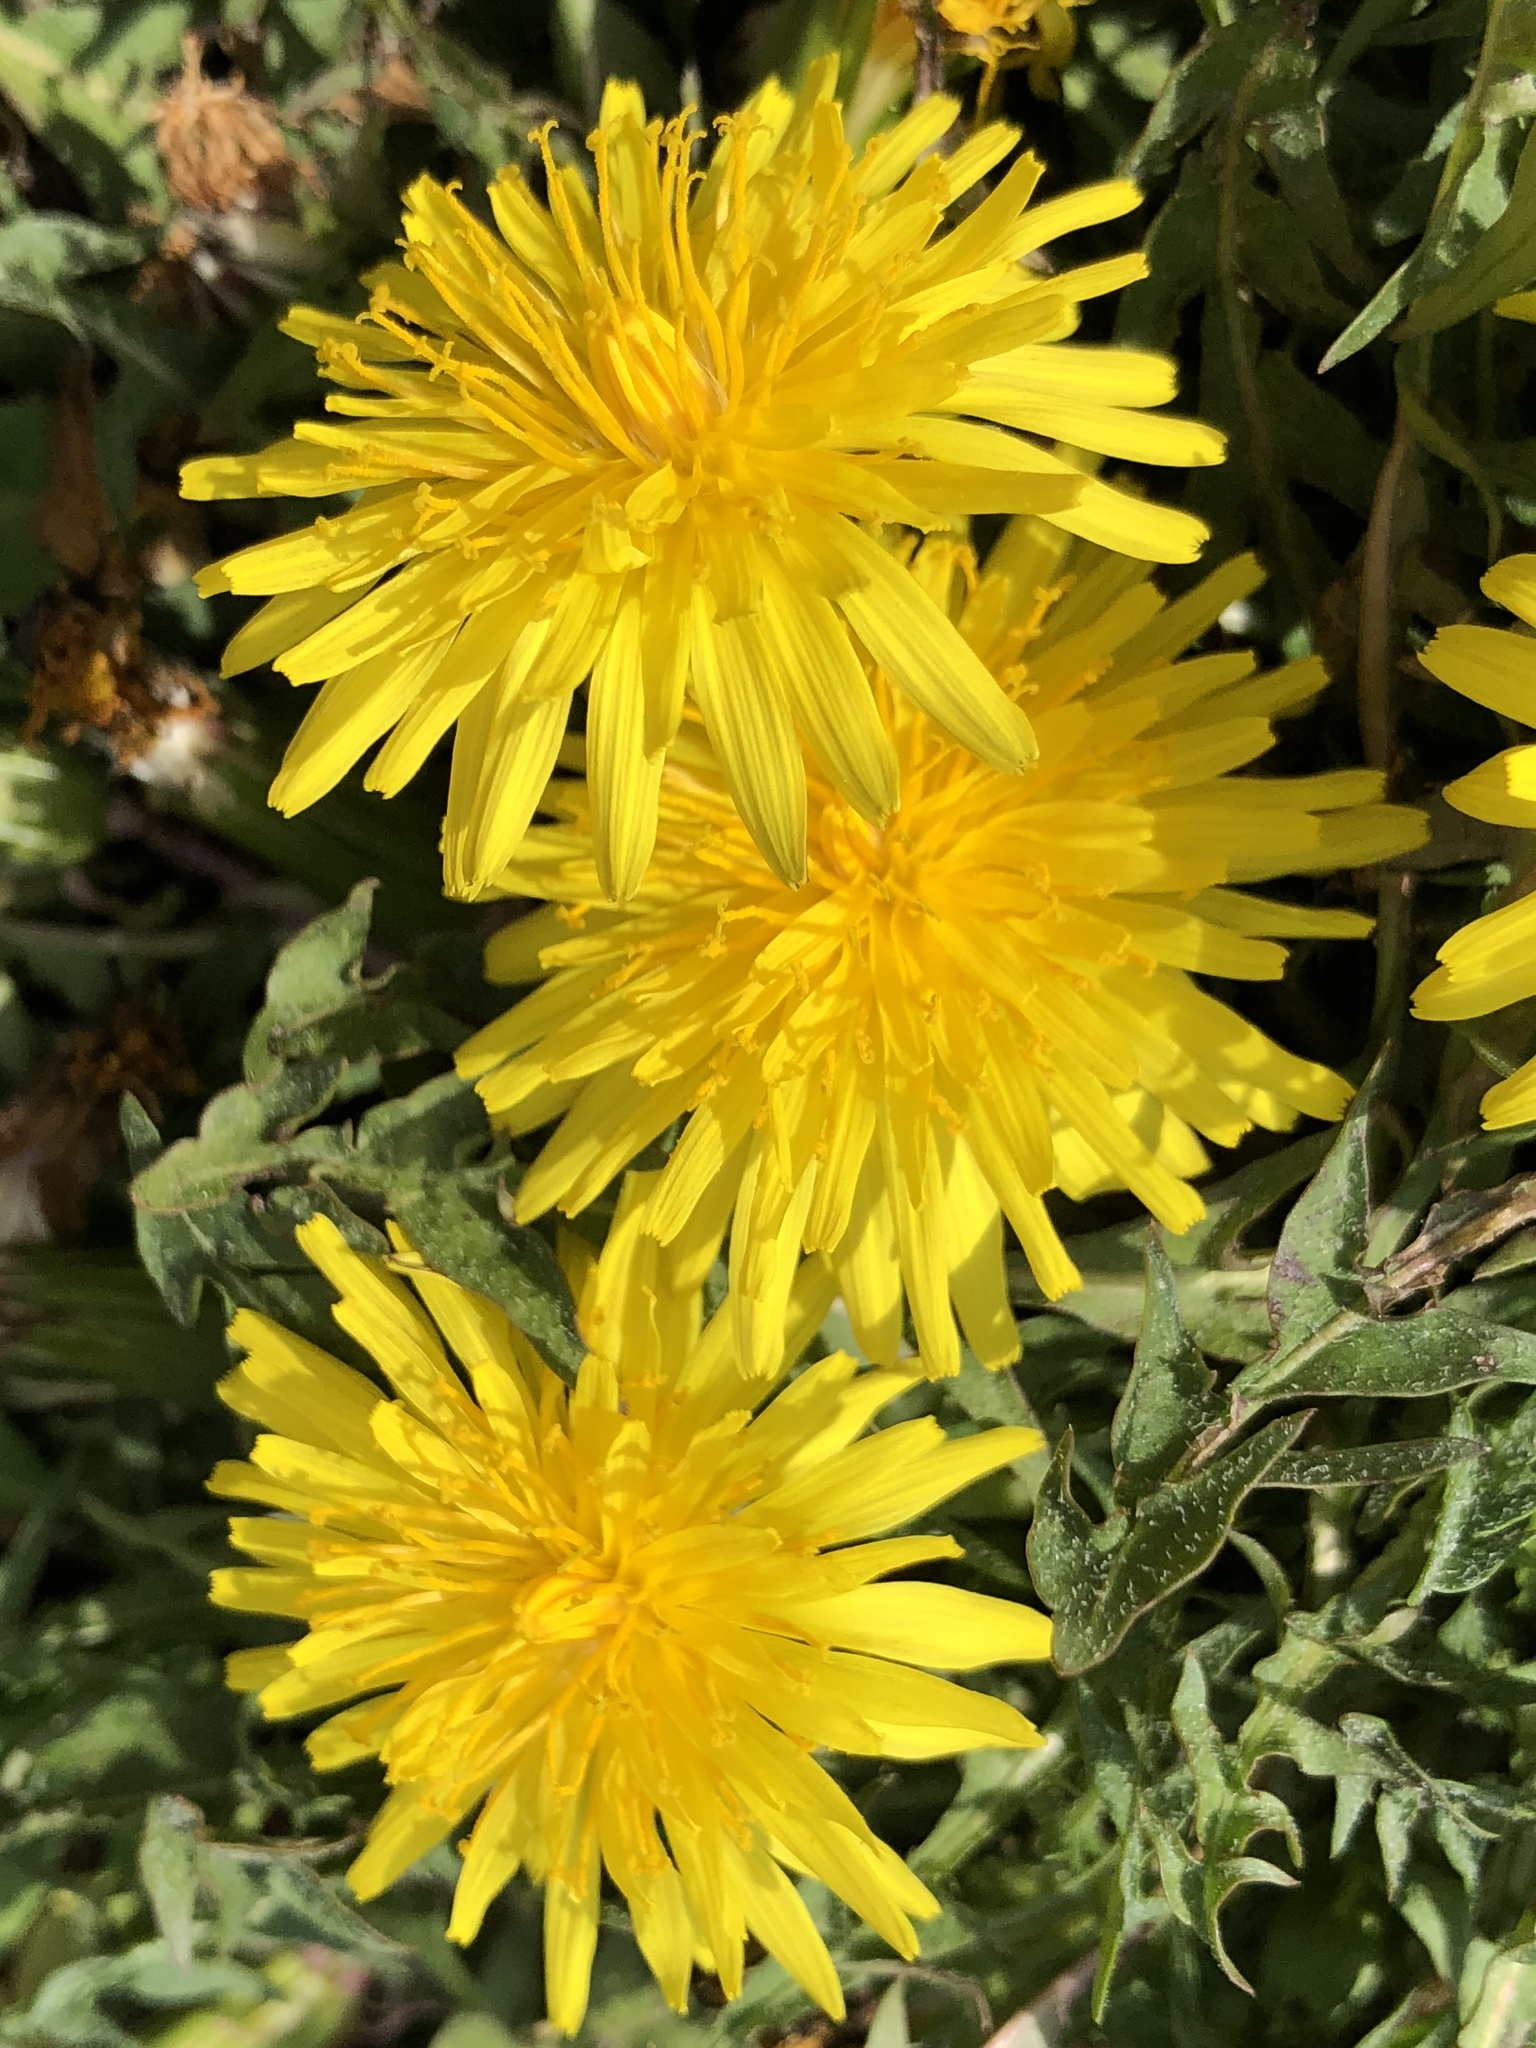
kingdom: Plantae
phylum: Tracheophyta
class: Magnoliopsida
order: Asterales
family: Asteraceae
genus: Taraxacum
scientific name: Taraxacum erythrospermum
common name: Rock dandelion
